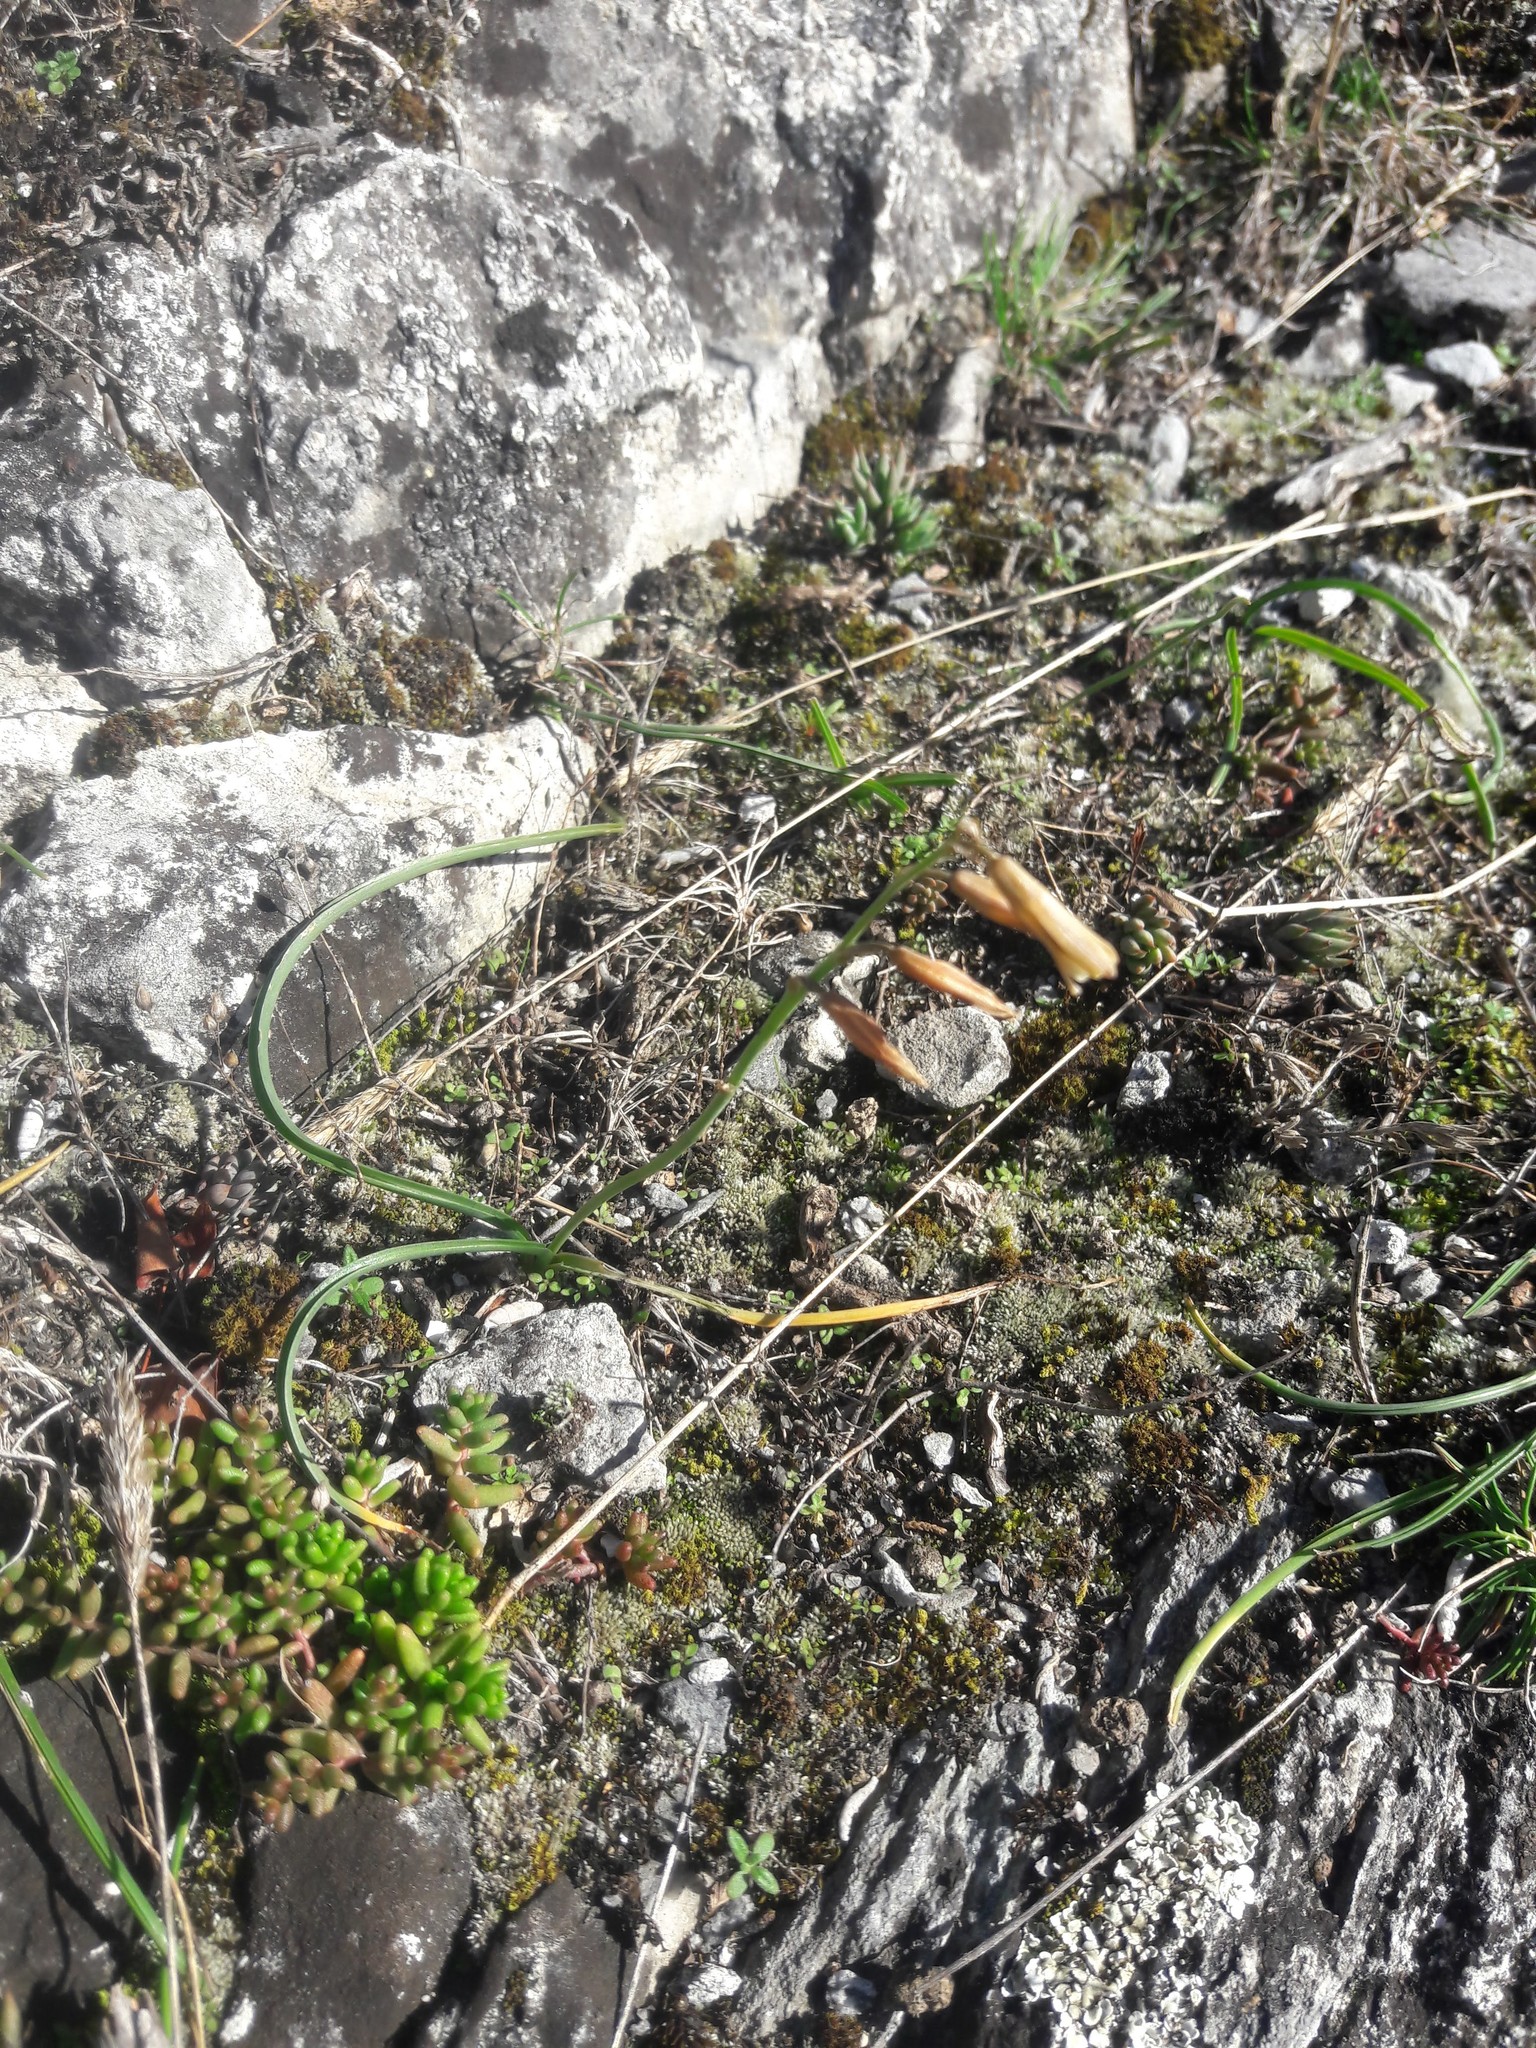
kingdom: Plantae
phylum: Tracheophyta
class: Liliopsida
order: Asparagales
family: Asparagaceae
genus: Dipcadi
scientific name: Dipcadi serotinum
